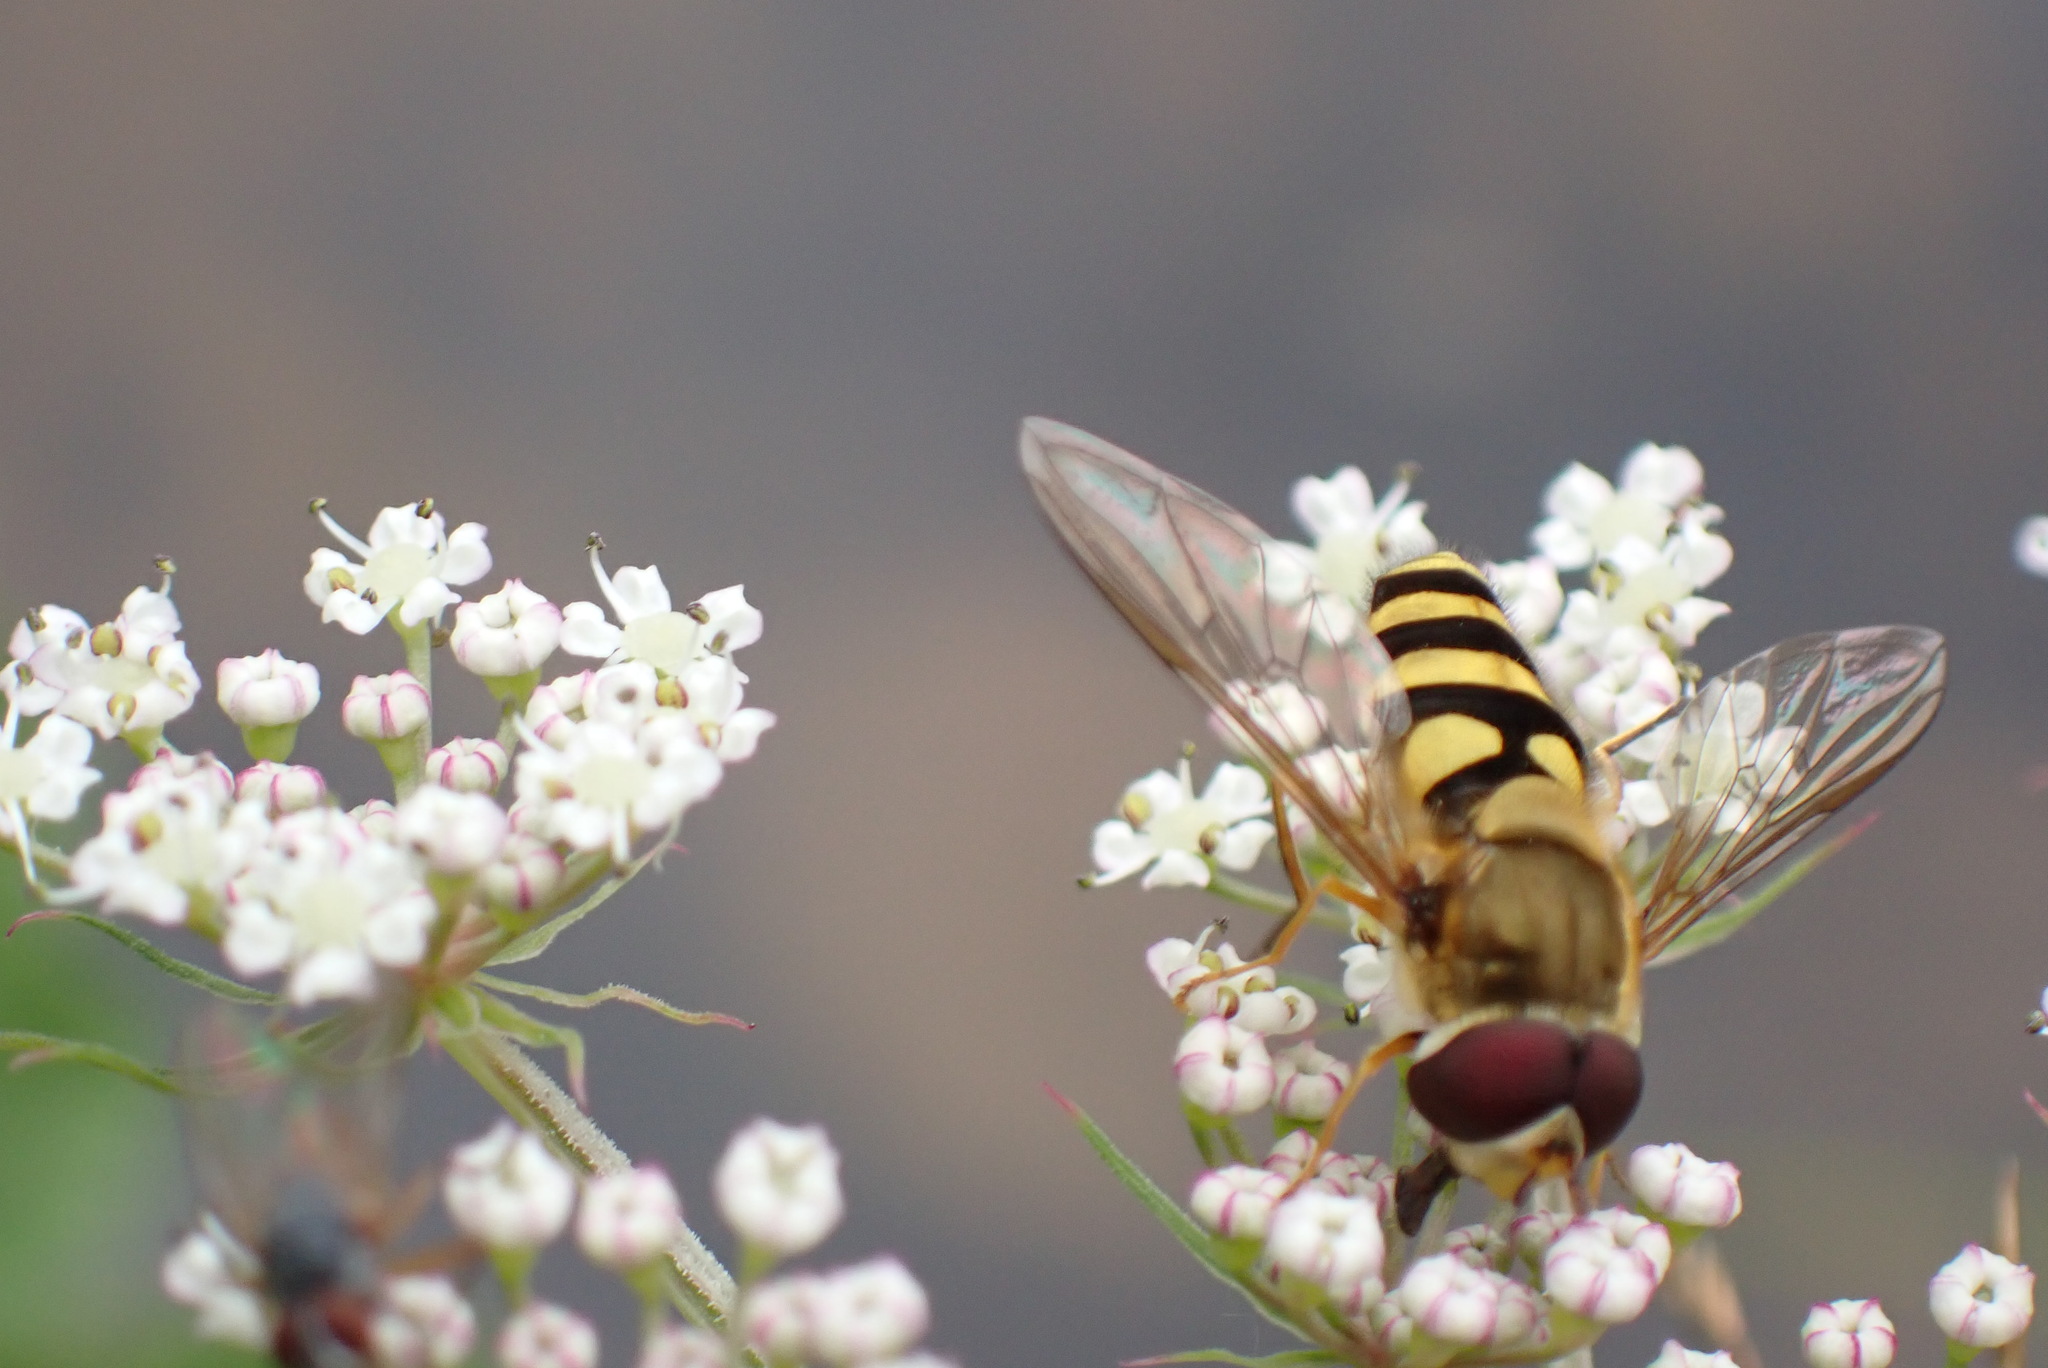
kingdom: Animalia
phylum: Arthropoda
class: Insecta
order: Diptera
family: Syrphidae
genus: Syrphus
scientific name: Syrphus
